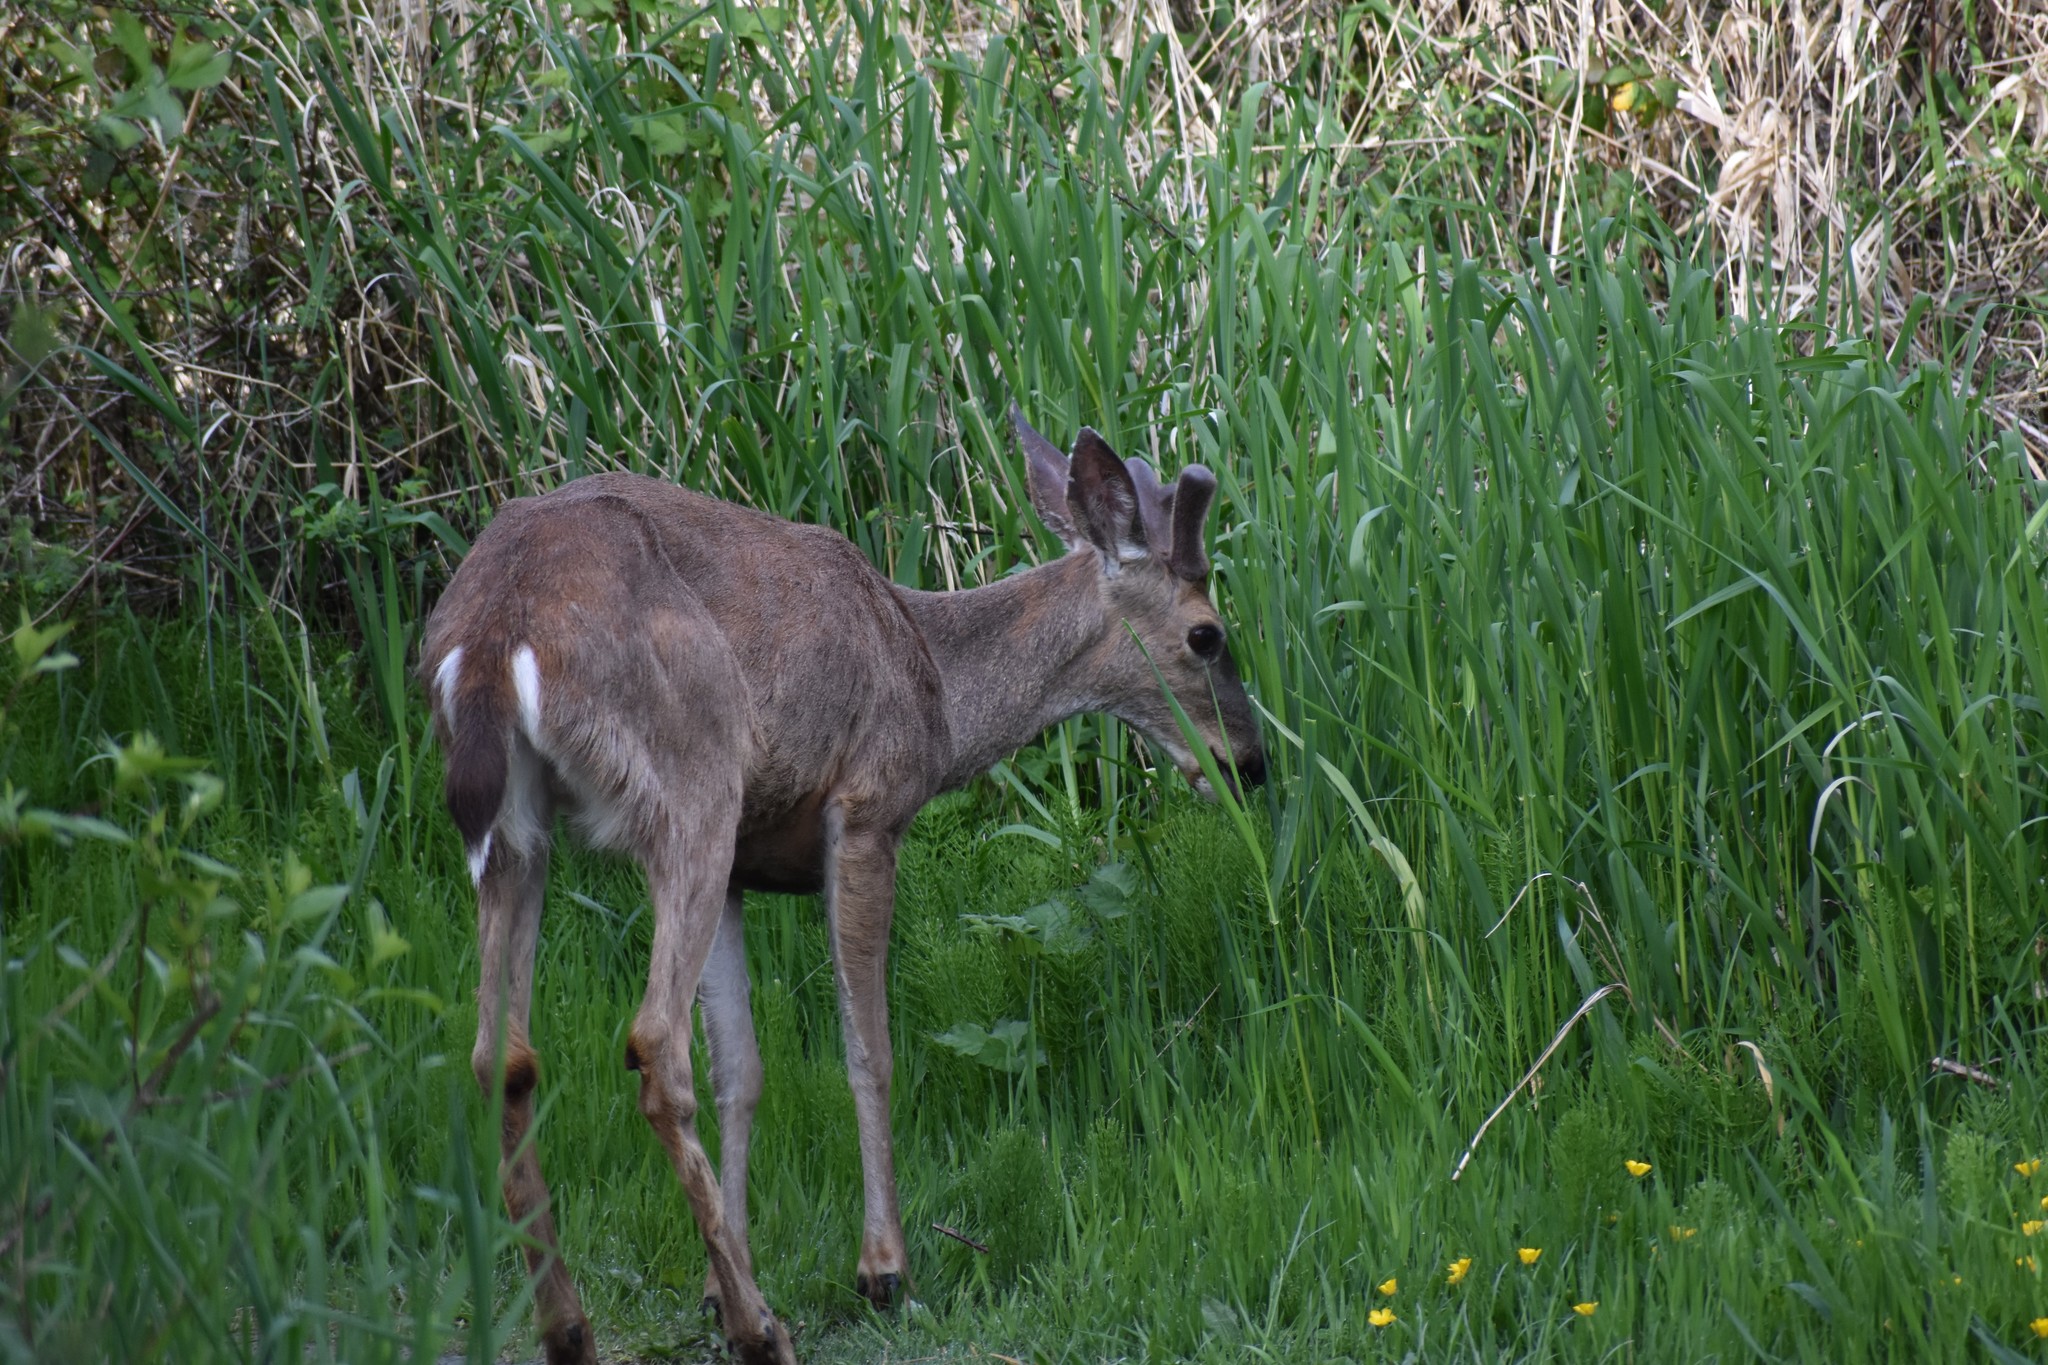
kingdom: Animalia
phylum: Chordata
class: Mammalia
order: Artiodactyla
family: Cervidae
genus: Odocoileus
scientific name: Odocoileus hemionus
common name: Mule deer
